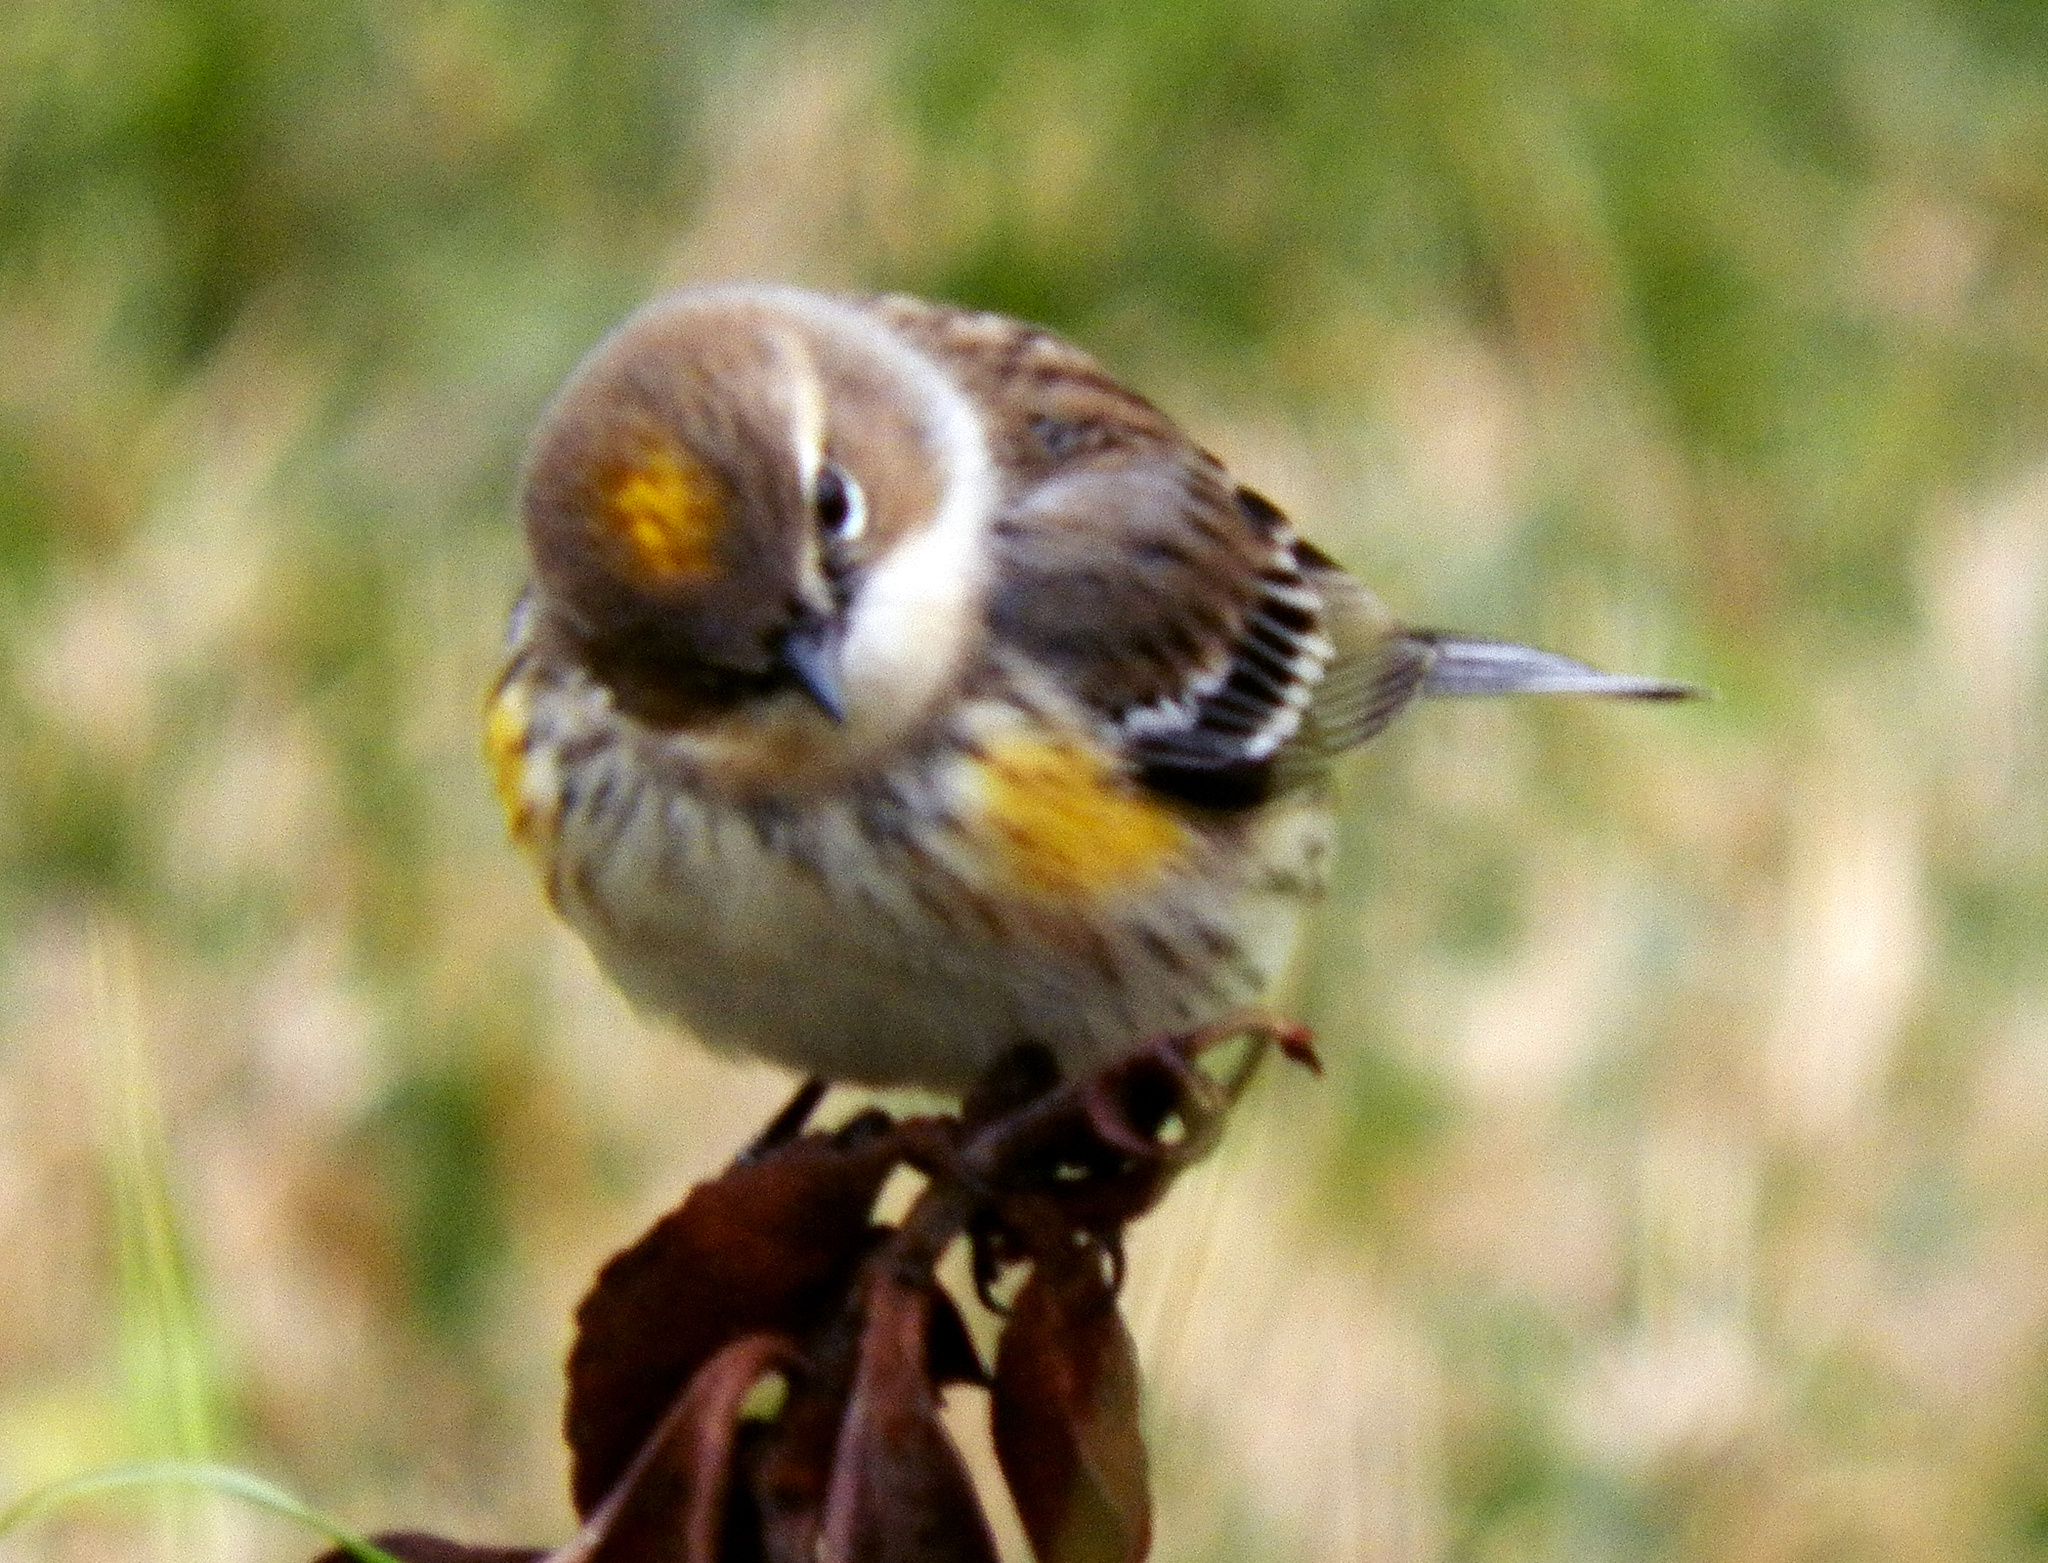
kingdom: Animalia
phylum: Chordata
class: Aves
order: Passeriformes
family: Parulidae
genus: Setophaga
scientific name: Setophaga coronata
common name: Myrtle warbler
